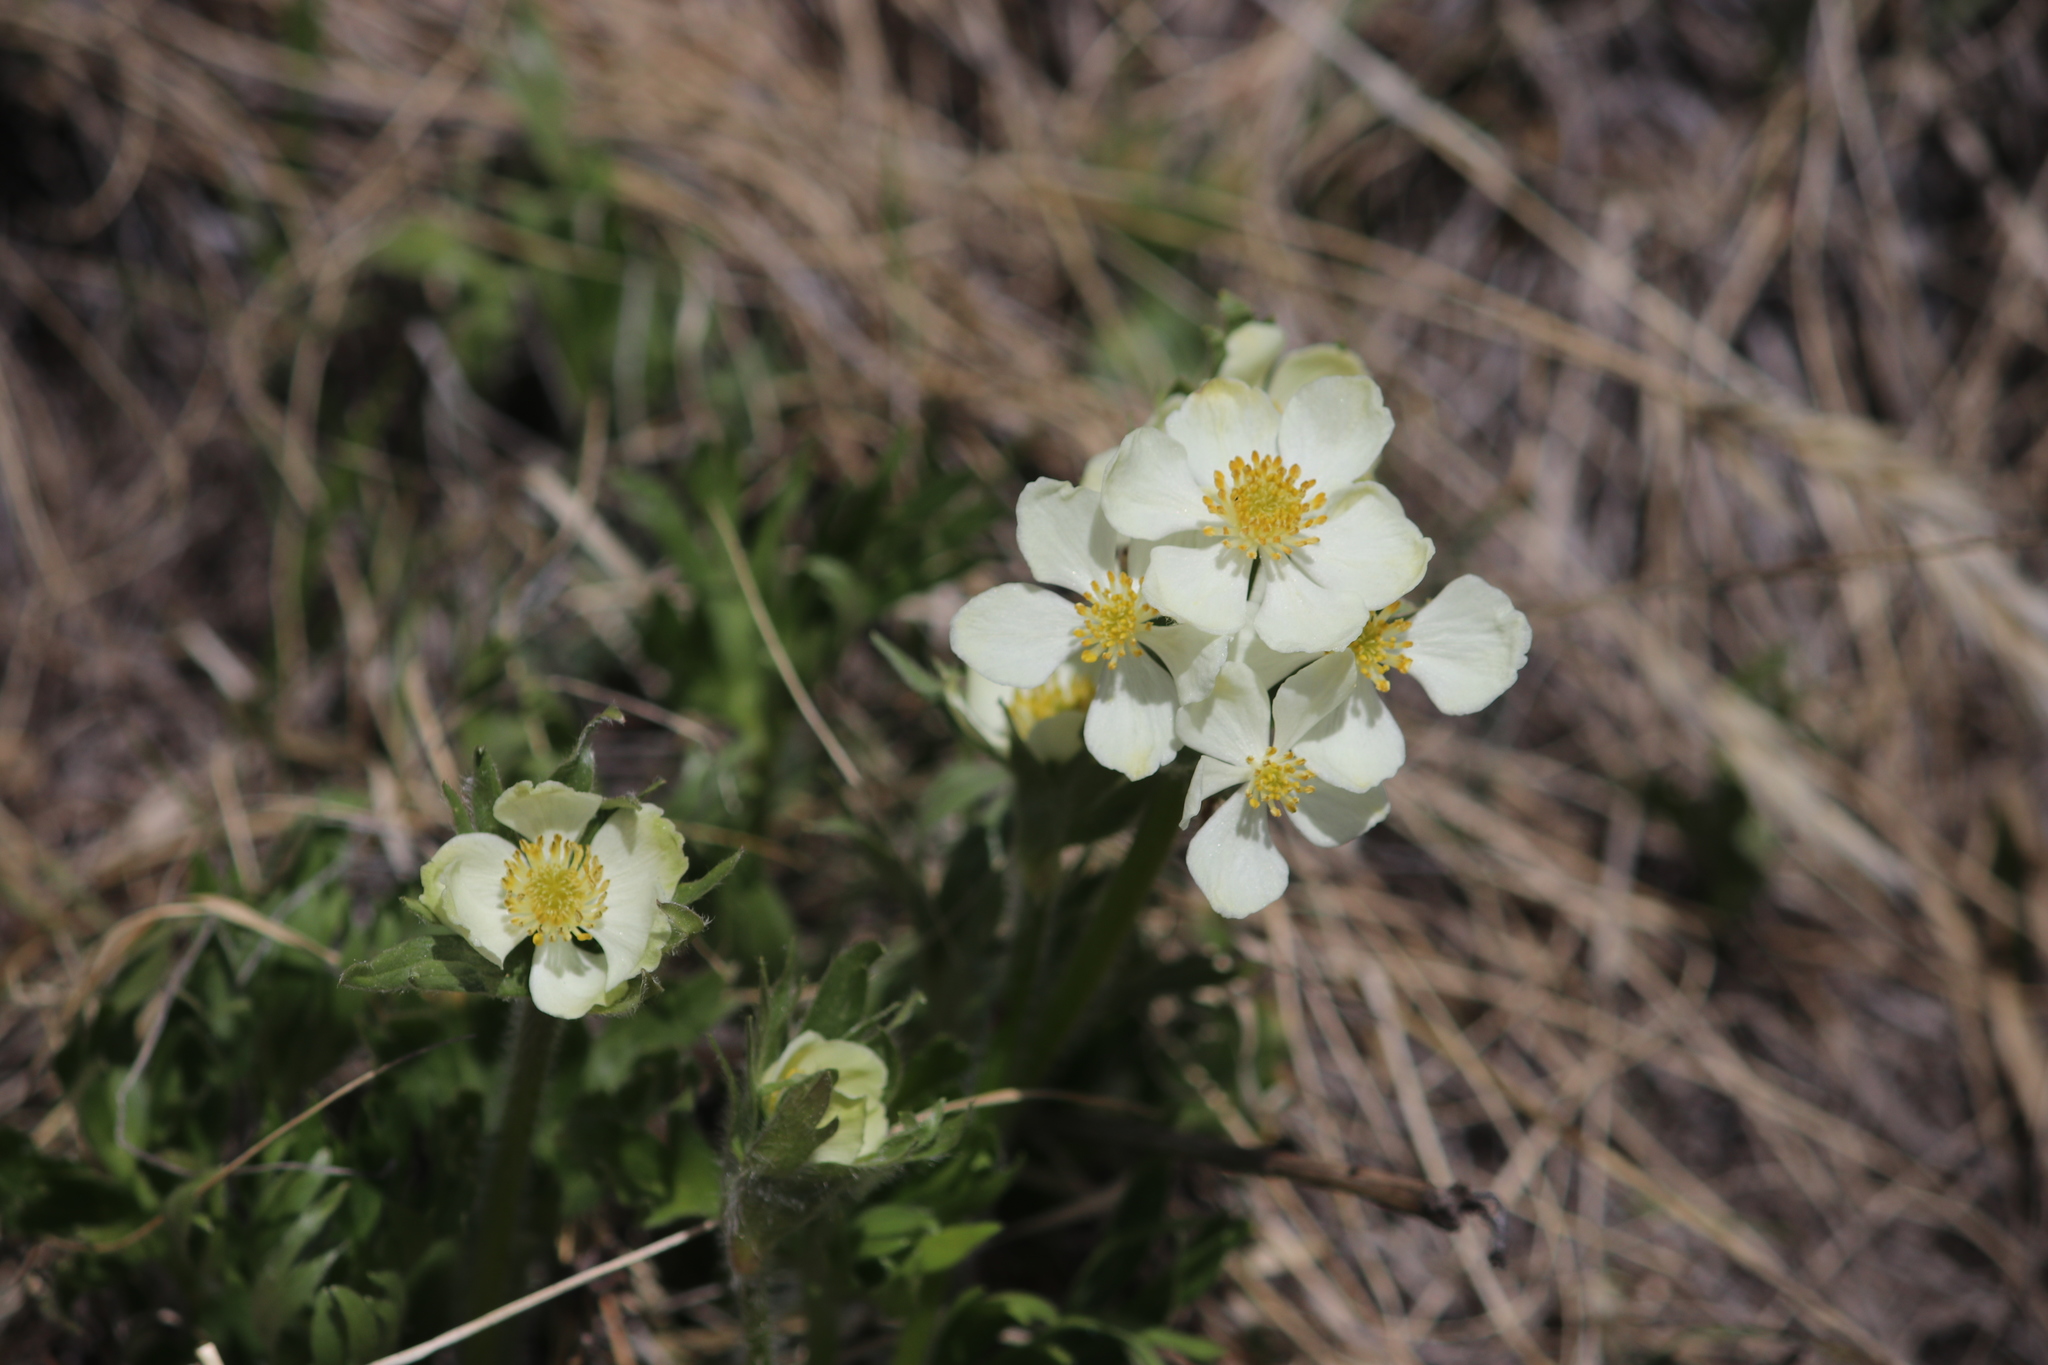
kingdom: Plantae
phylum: Tracheophyta
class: Magnoliopsida
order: Ranunculales
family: Ranunculaceae
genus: Anemonastrum
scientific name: Anemonastrum narcissiflorum
